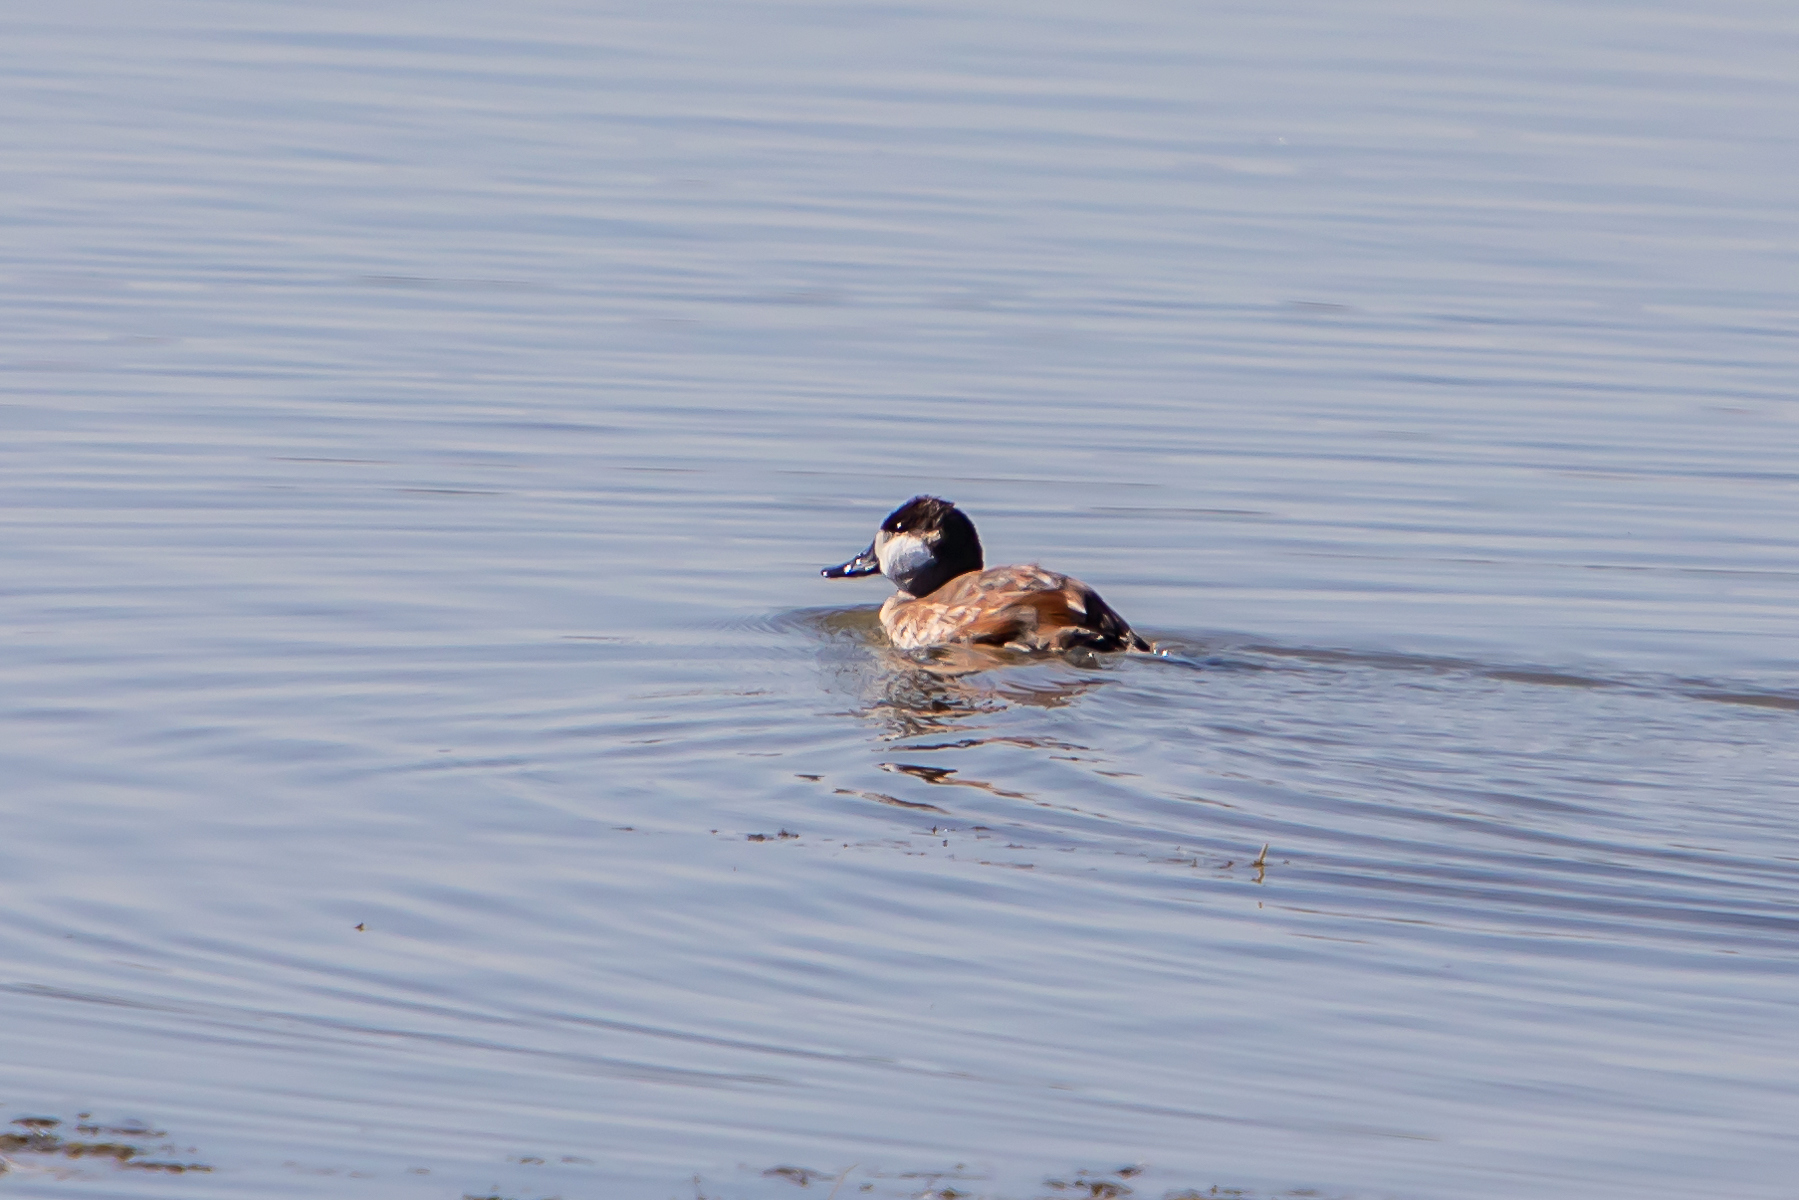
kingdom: Animalia
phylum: Chordata
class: Aves
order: Anseriformes
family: Anatidae
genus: Oxyura
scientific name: Oxyura jamaicensis
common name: Ruddy duck
